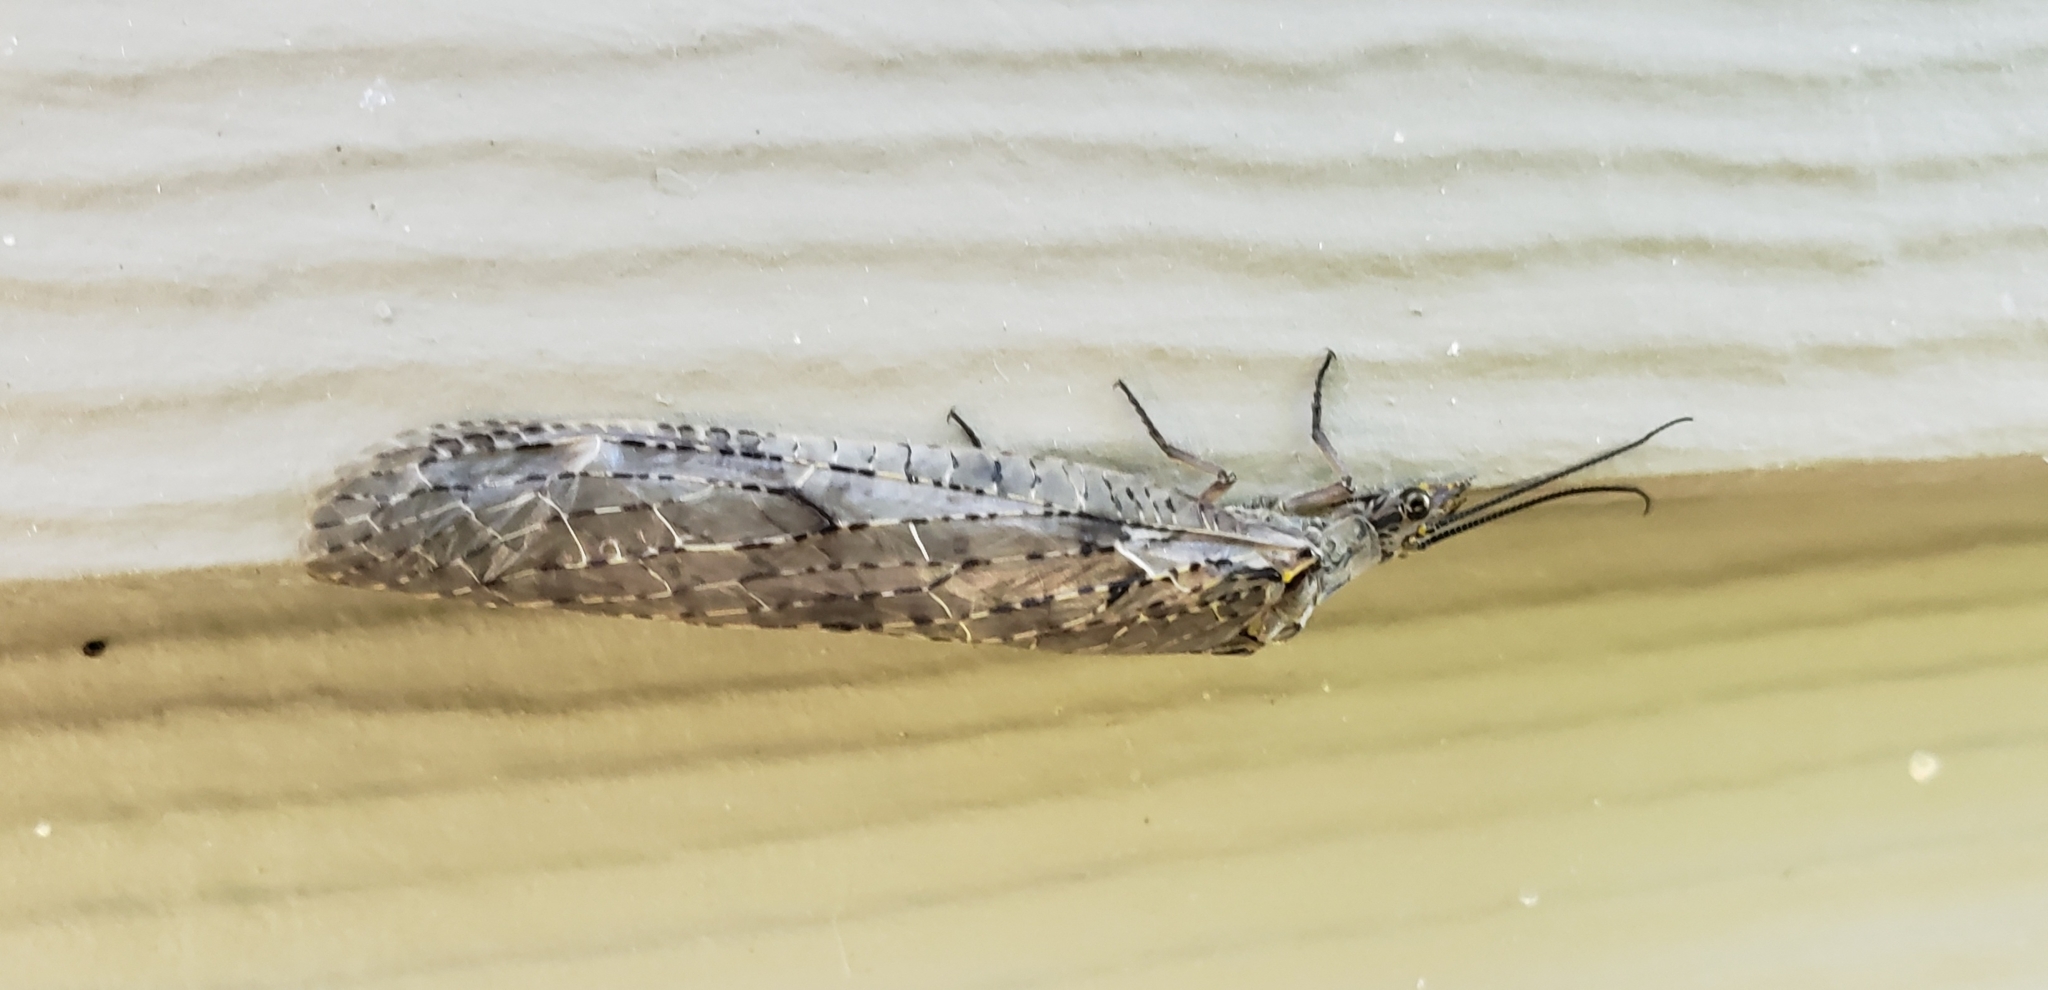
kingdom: Animalia
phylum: Arthropoda
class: Insecta
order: Megaloptera
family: Corydalidae
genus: Chauliodes
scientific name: Chauliodes rastricornis
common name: Spring fishfly
